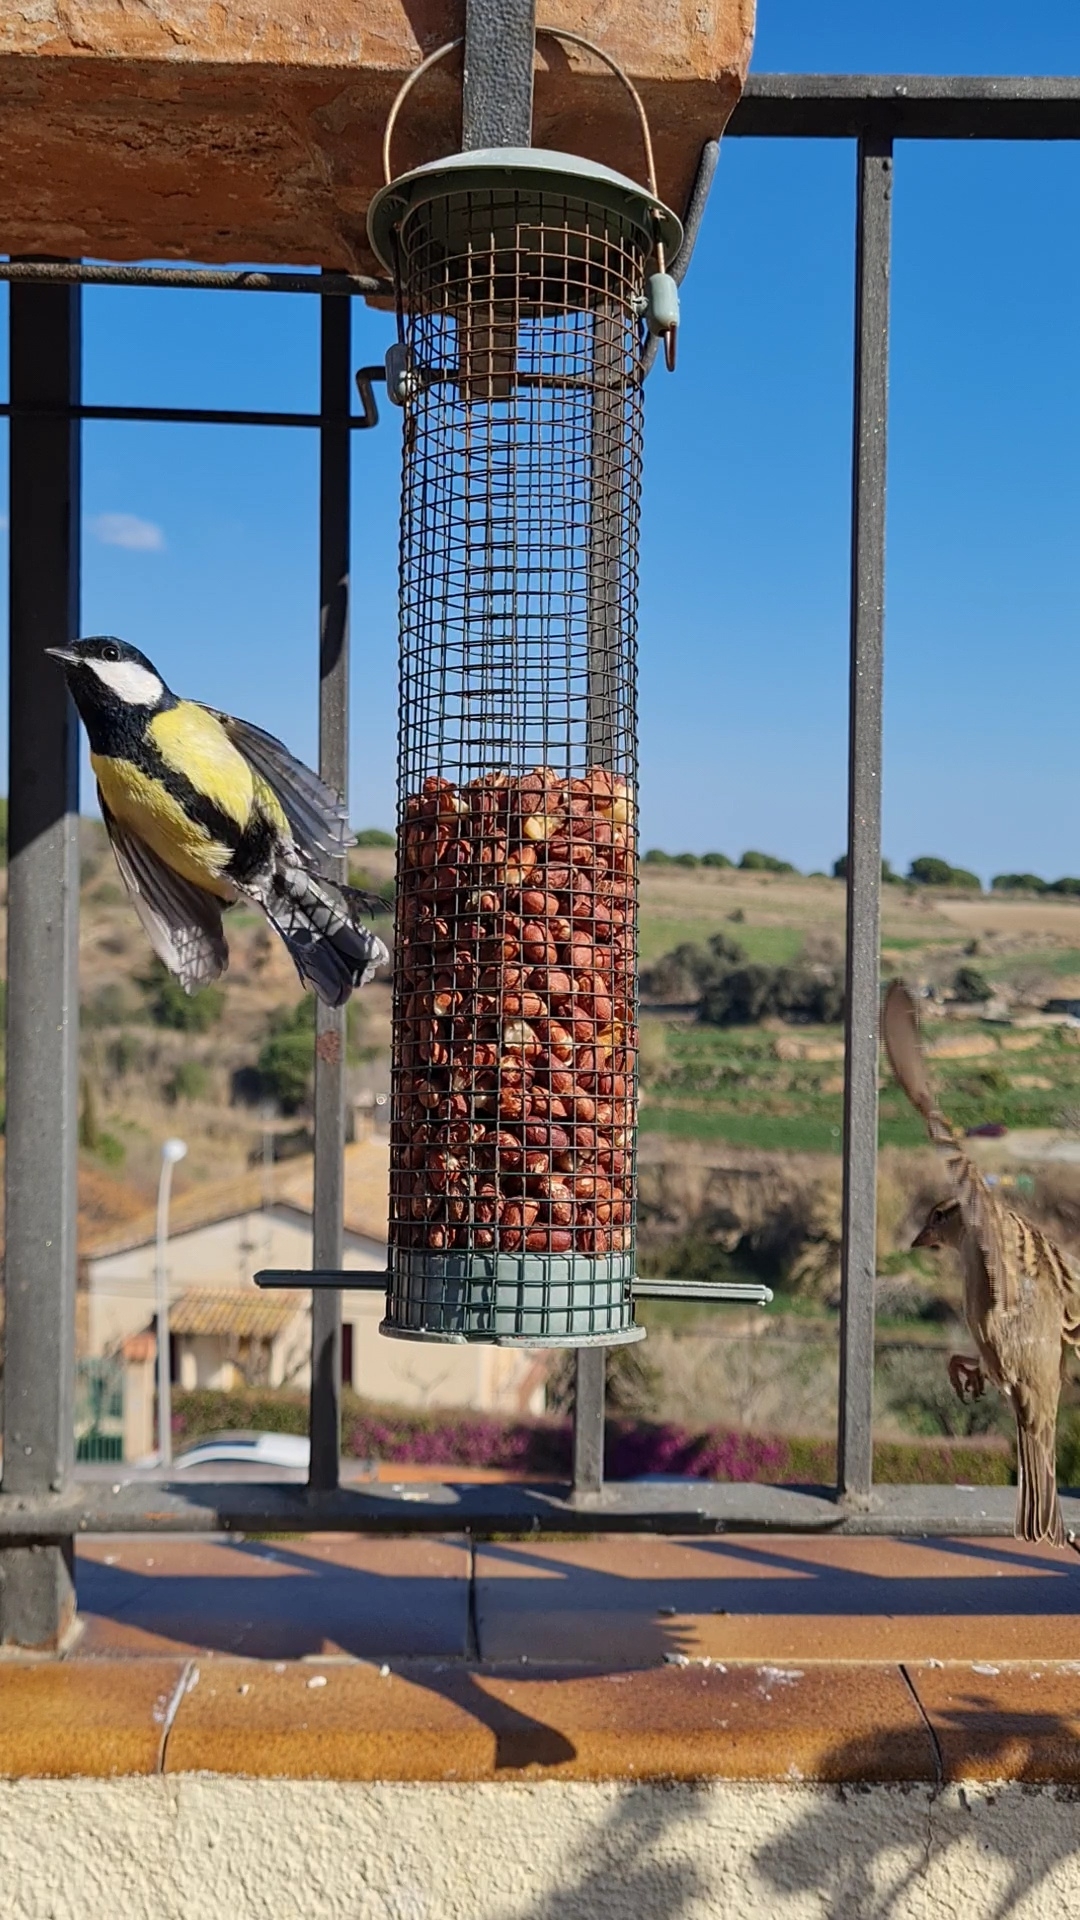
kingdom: Animalia
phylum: Chordata
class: Aves
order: Passeriformes
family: Paridae
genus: Parus
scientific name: Parus major
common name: Great tit
